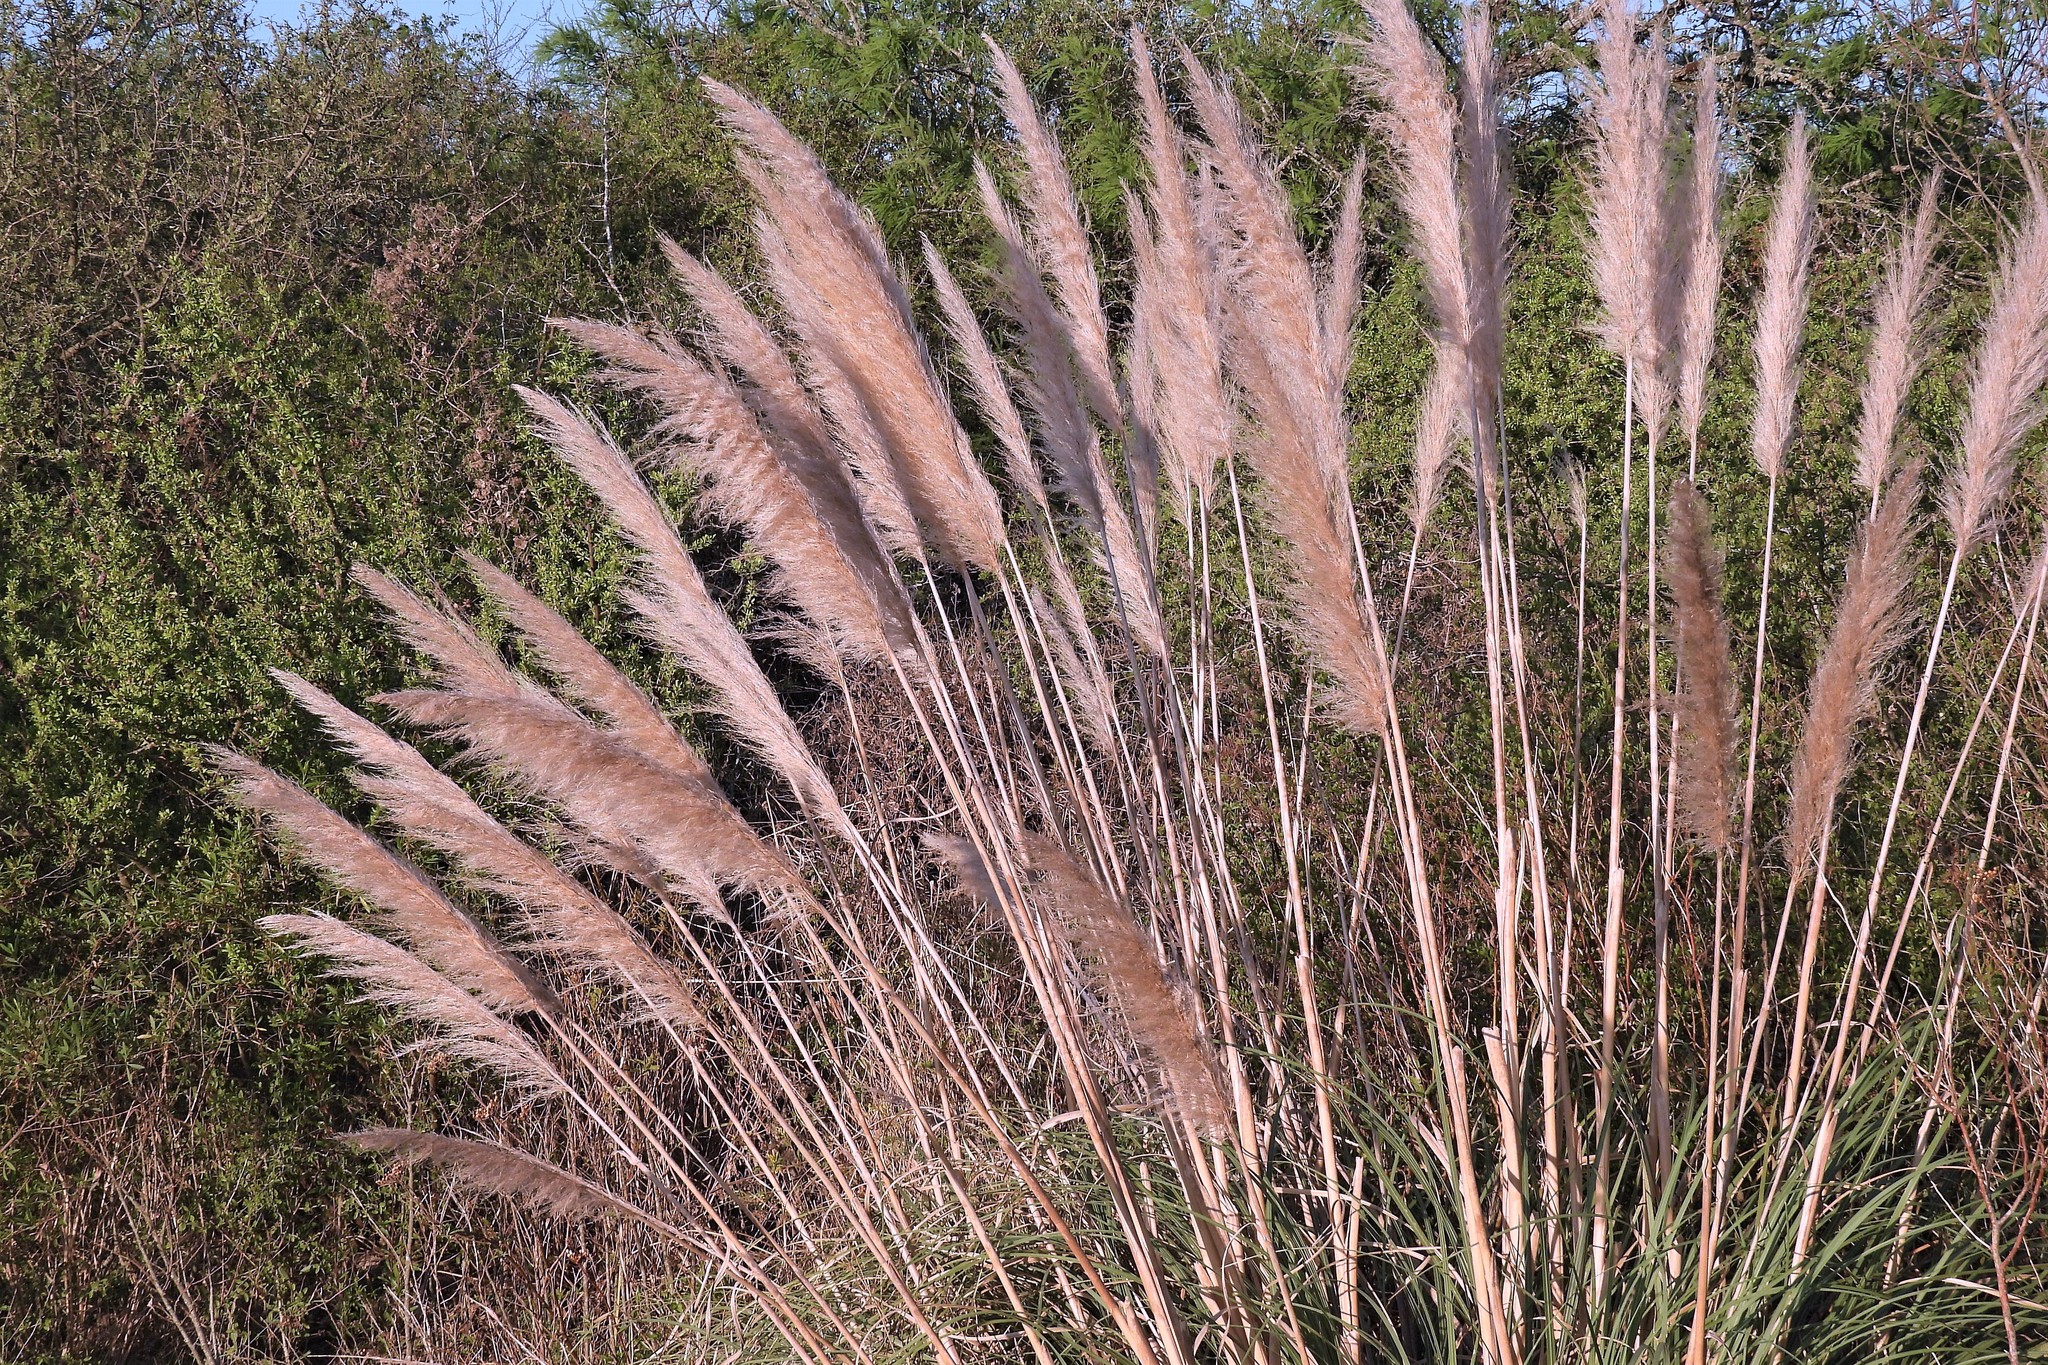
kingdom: Plantae
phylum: Tracheophyta
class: Liliopsida
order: Poales
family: Poaceae
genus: Cortaderia
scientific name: Cortaderia selloana
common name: Uruguayan pampas grass
